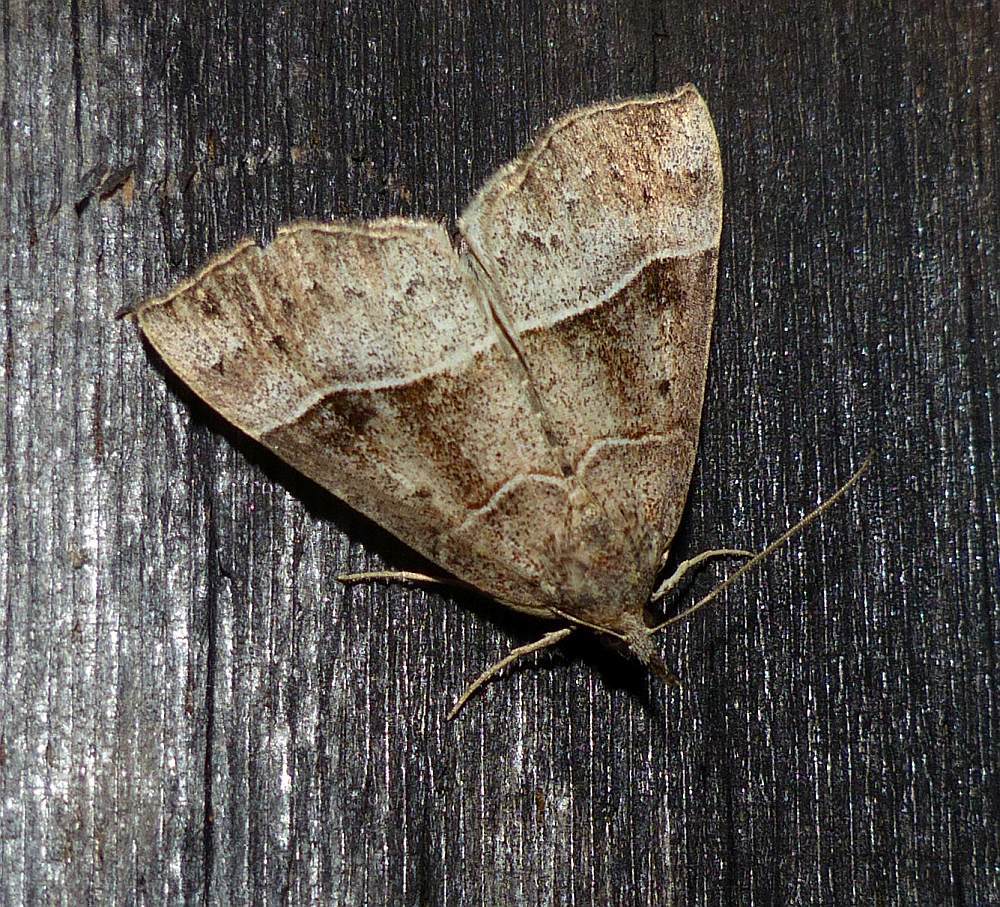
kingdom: Animalia
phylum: Arthropoda
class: Insecta
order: Lepidoptera
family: Erebidae
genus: Hypena
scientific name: Hypena deceptalis
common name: Deceptive snout
